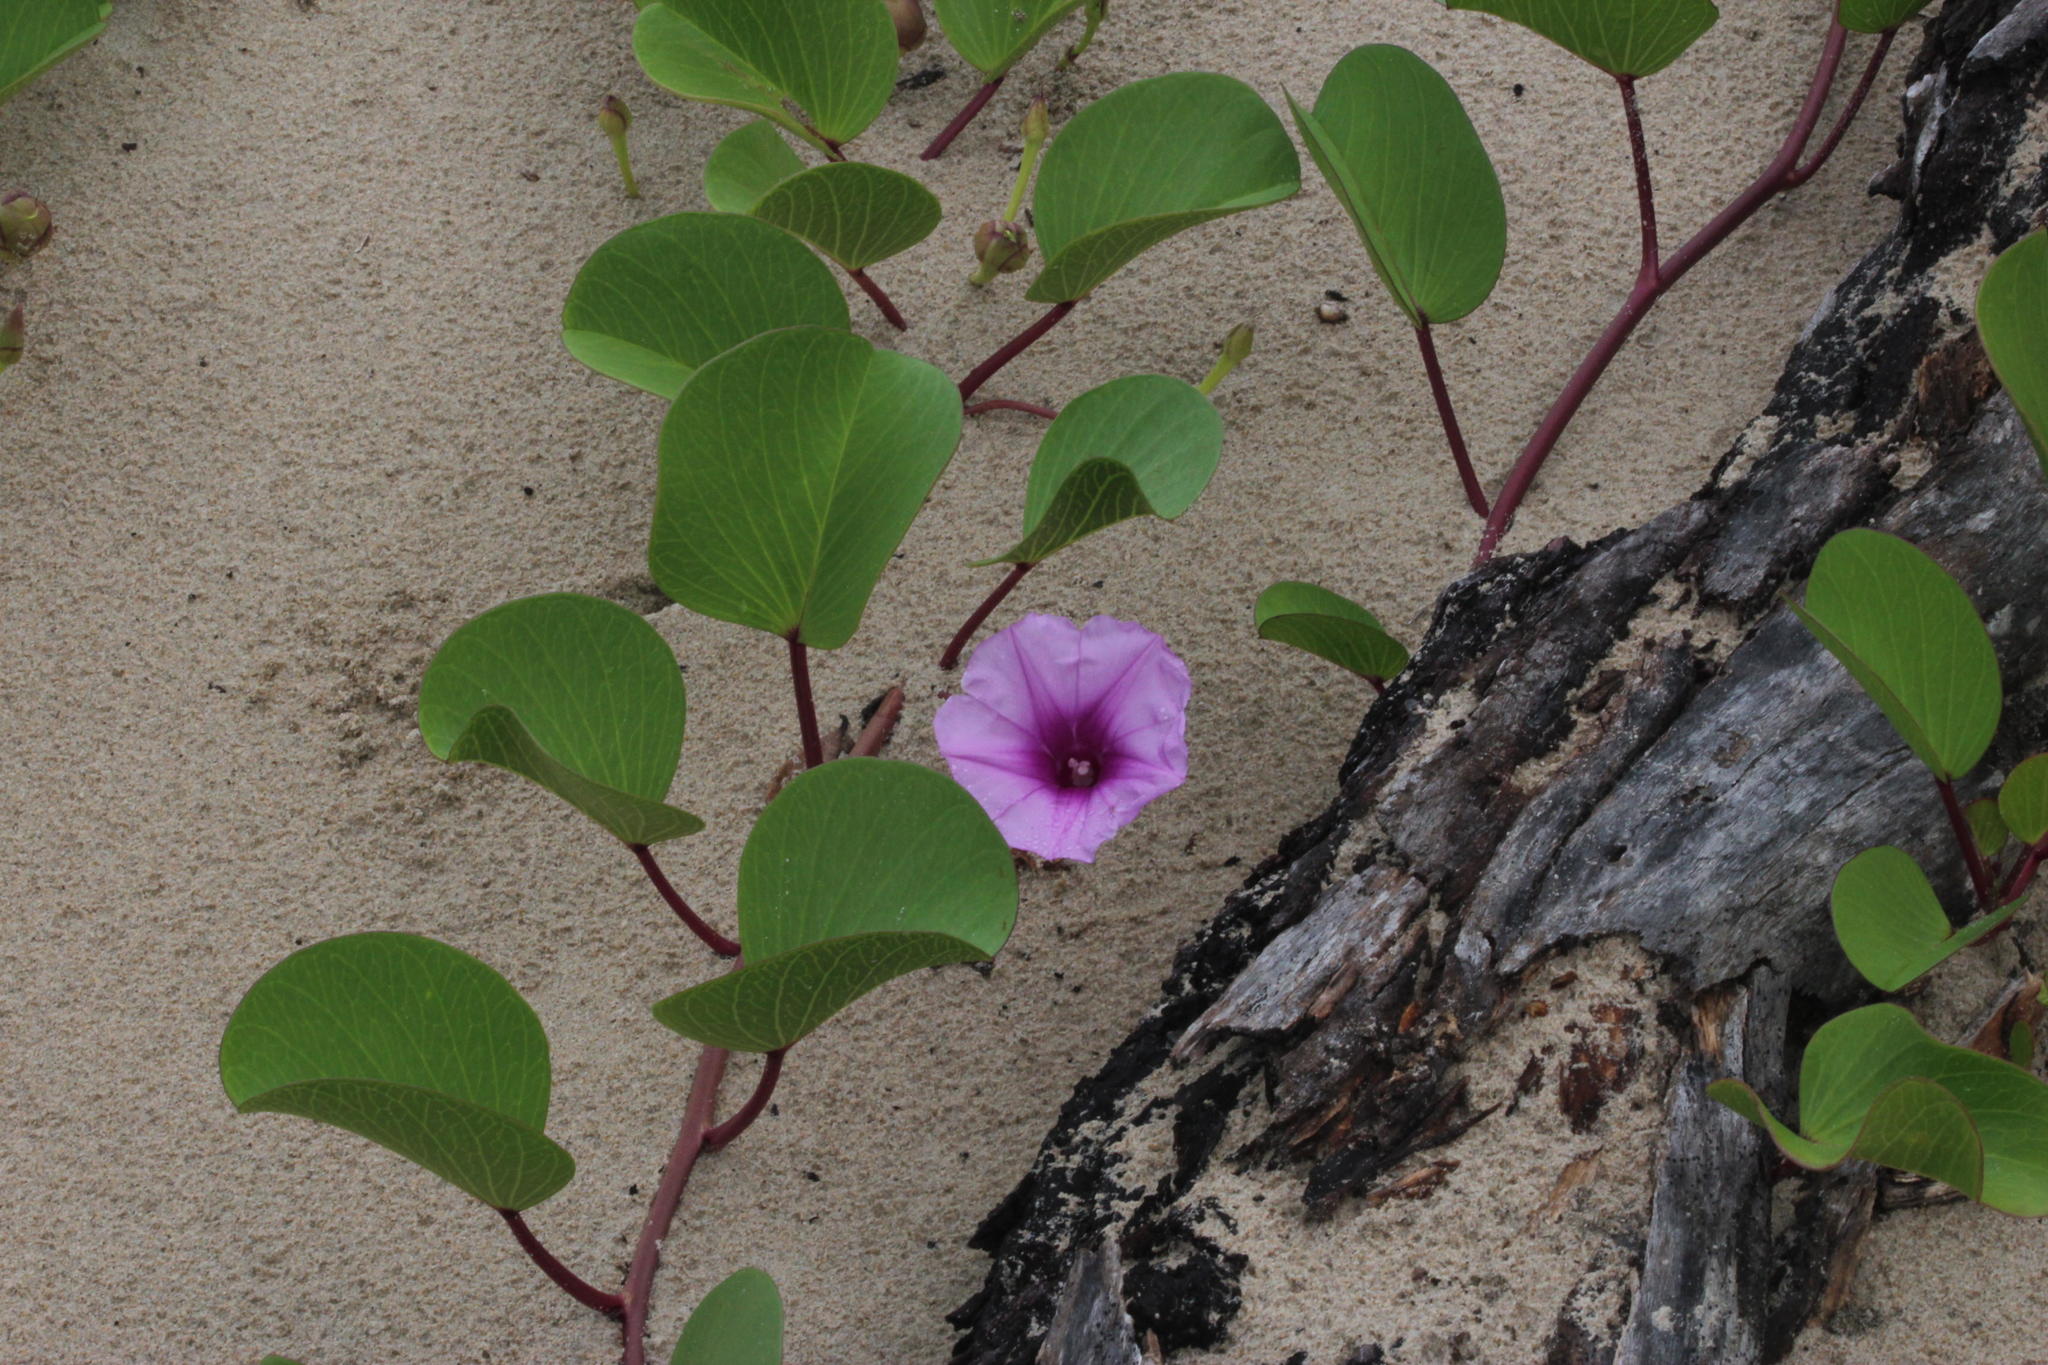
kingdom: Plantae
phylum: Tracheophyta
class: Magnoliopsida
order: Solanales
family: Convolvulaceae
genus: Ipomoea
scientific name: Ipomoea pes-caprae
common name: Beach morning glory
